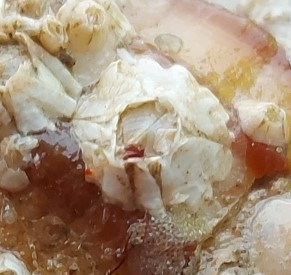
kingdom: Animalia
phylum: Arthropoda
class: Maxillopoda
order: Sessilia
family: Archaeobalanidae
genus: Semibalanus
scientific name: Semibalanus balanoides
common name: Acorn barnacle
